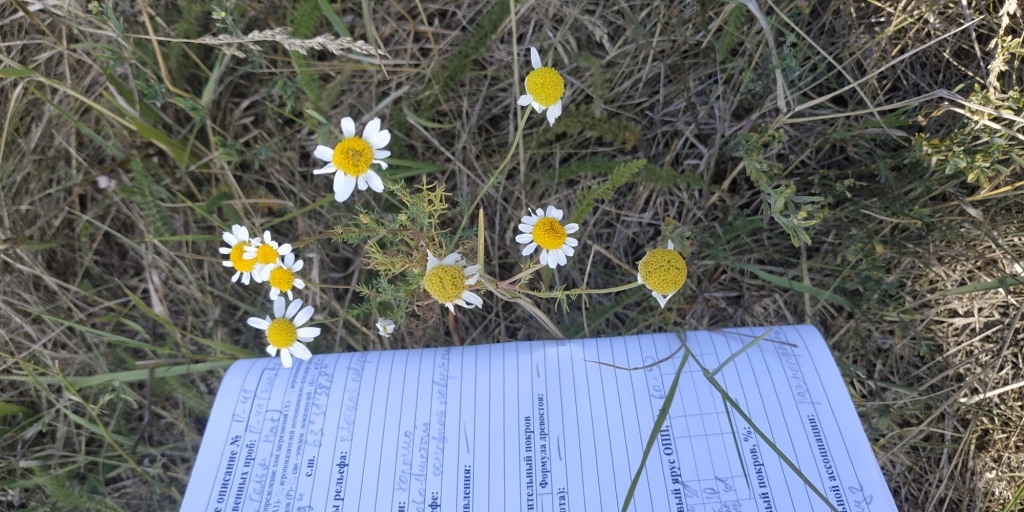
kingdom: Plantae
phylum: Tracheophyta
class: Magnoliopsida
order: Asterales
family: Asteraceae
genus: Tripleurospermum
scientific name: Tripleurospermum inodorum
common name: Scentless mayweed
